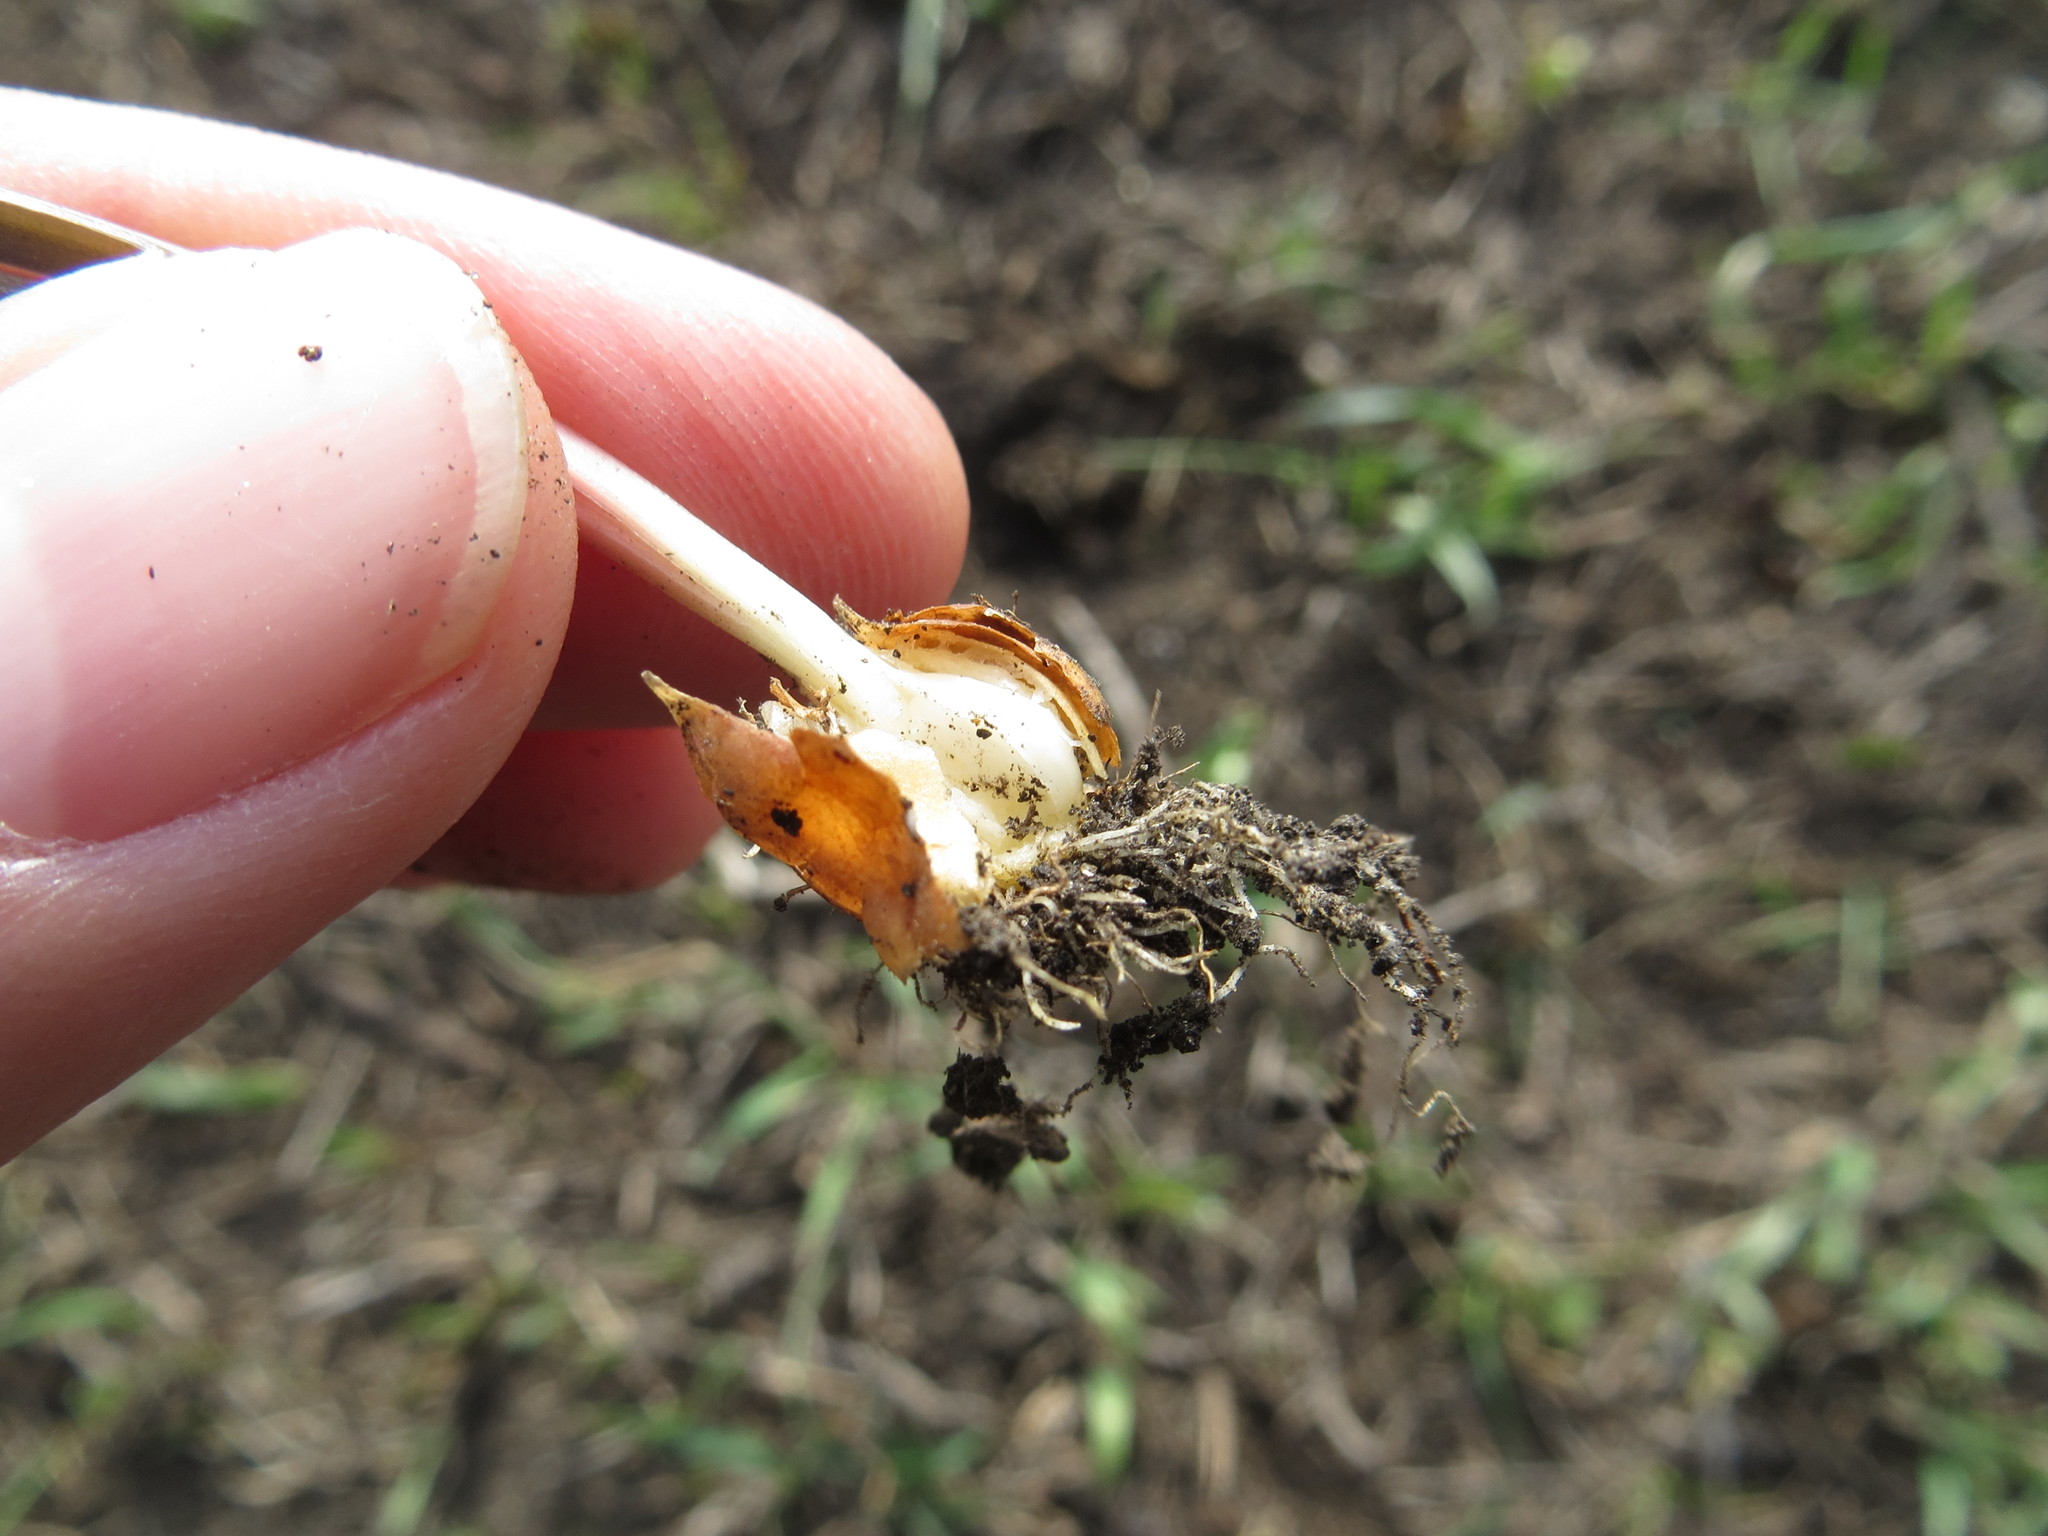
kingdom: Plantae
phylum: Tracheophyta
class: Liliopsida
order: Liliales
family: Liliaceae
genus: Gagea
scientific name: Gagea pusilla
